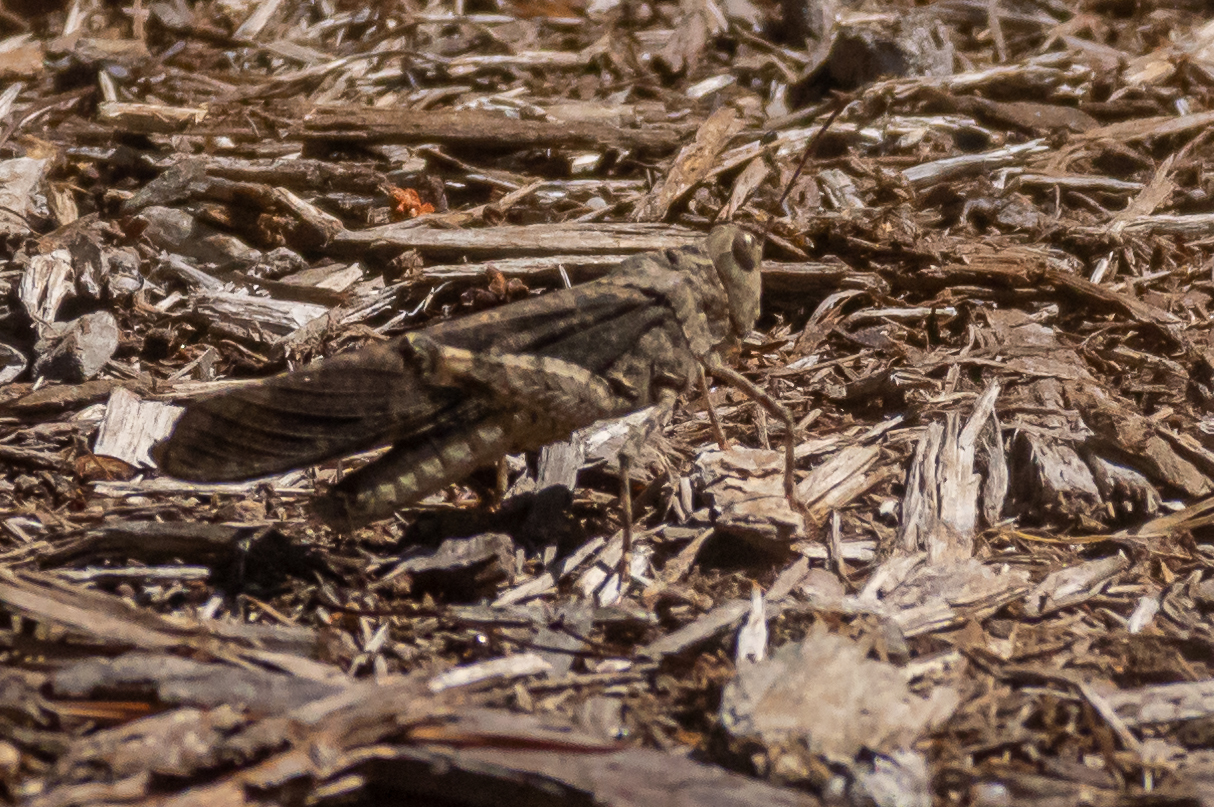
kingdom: Animalia
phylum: Arthropoda
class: Insecta
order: Orthoptera
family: Acrididae
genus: Dissosteira
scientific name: Dissosteira carolina
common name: Carolina grasshopper
